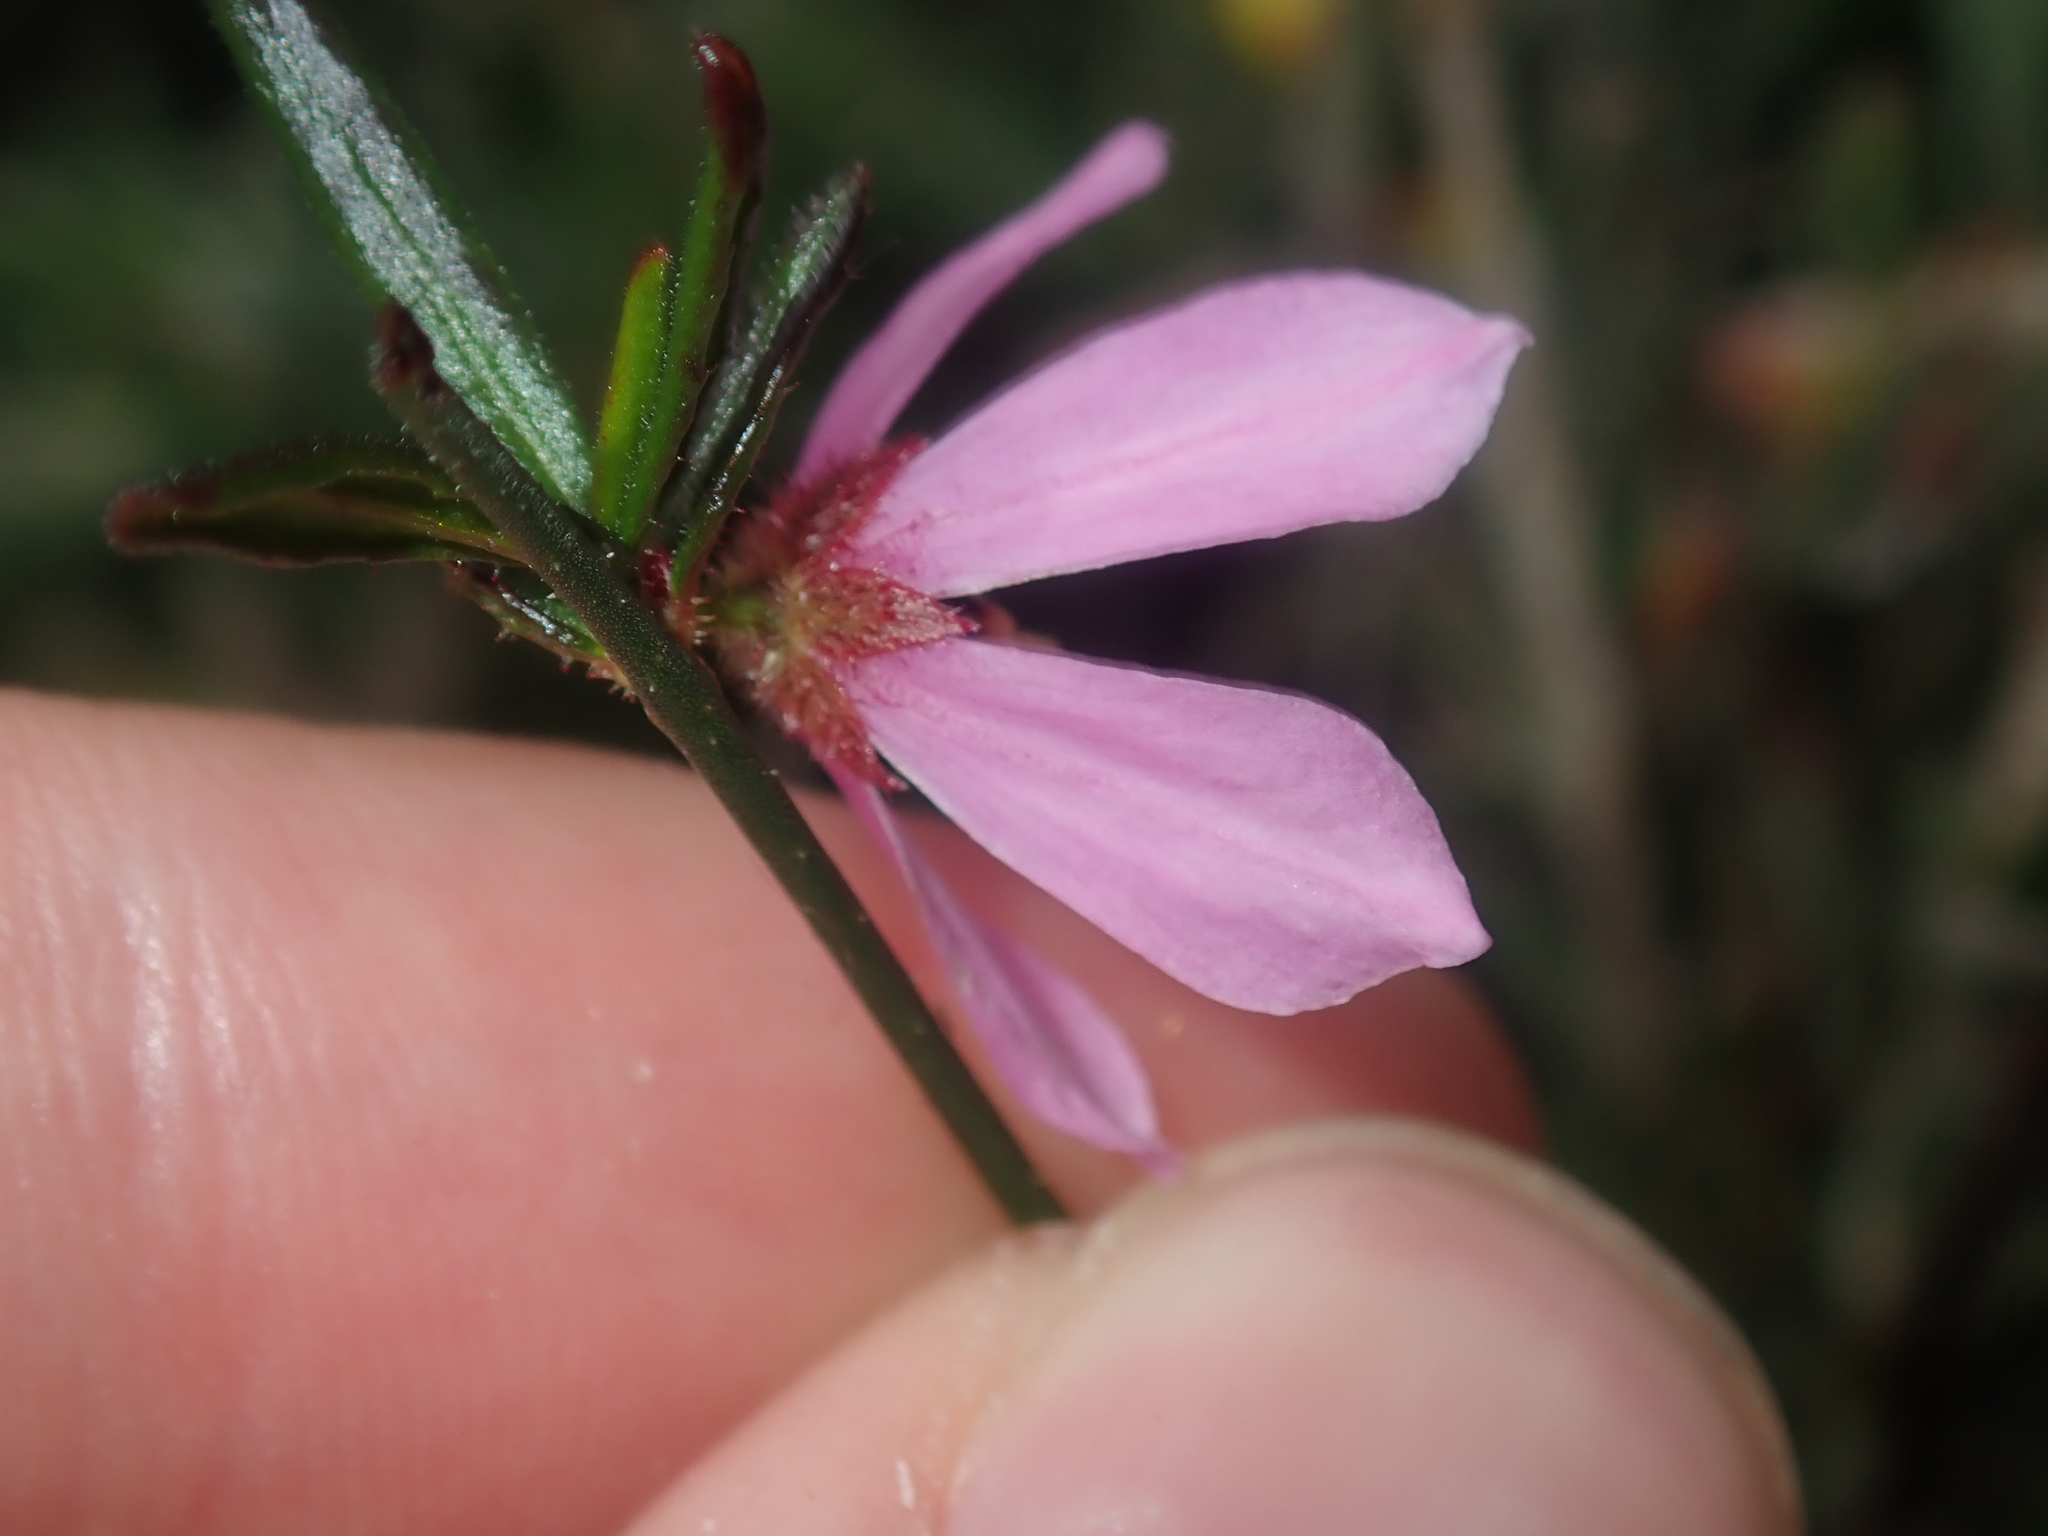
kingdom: Plantae
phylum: Tracheophyta
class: Magnoliopsida
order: Oxalidales
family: Elaeocarpaceae
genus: Tetratheca
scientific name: Tetratheca paucifolia
